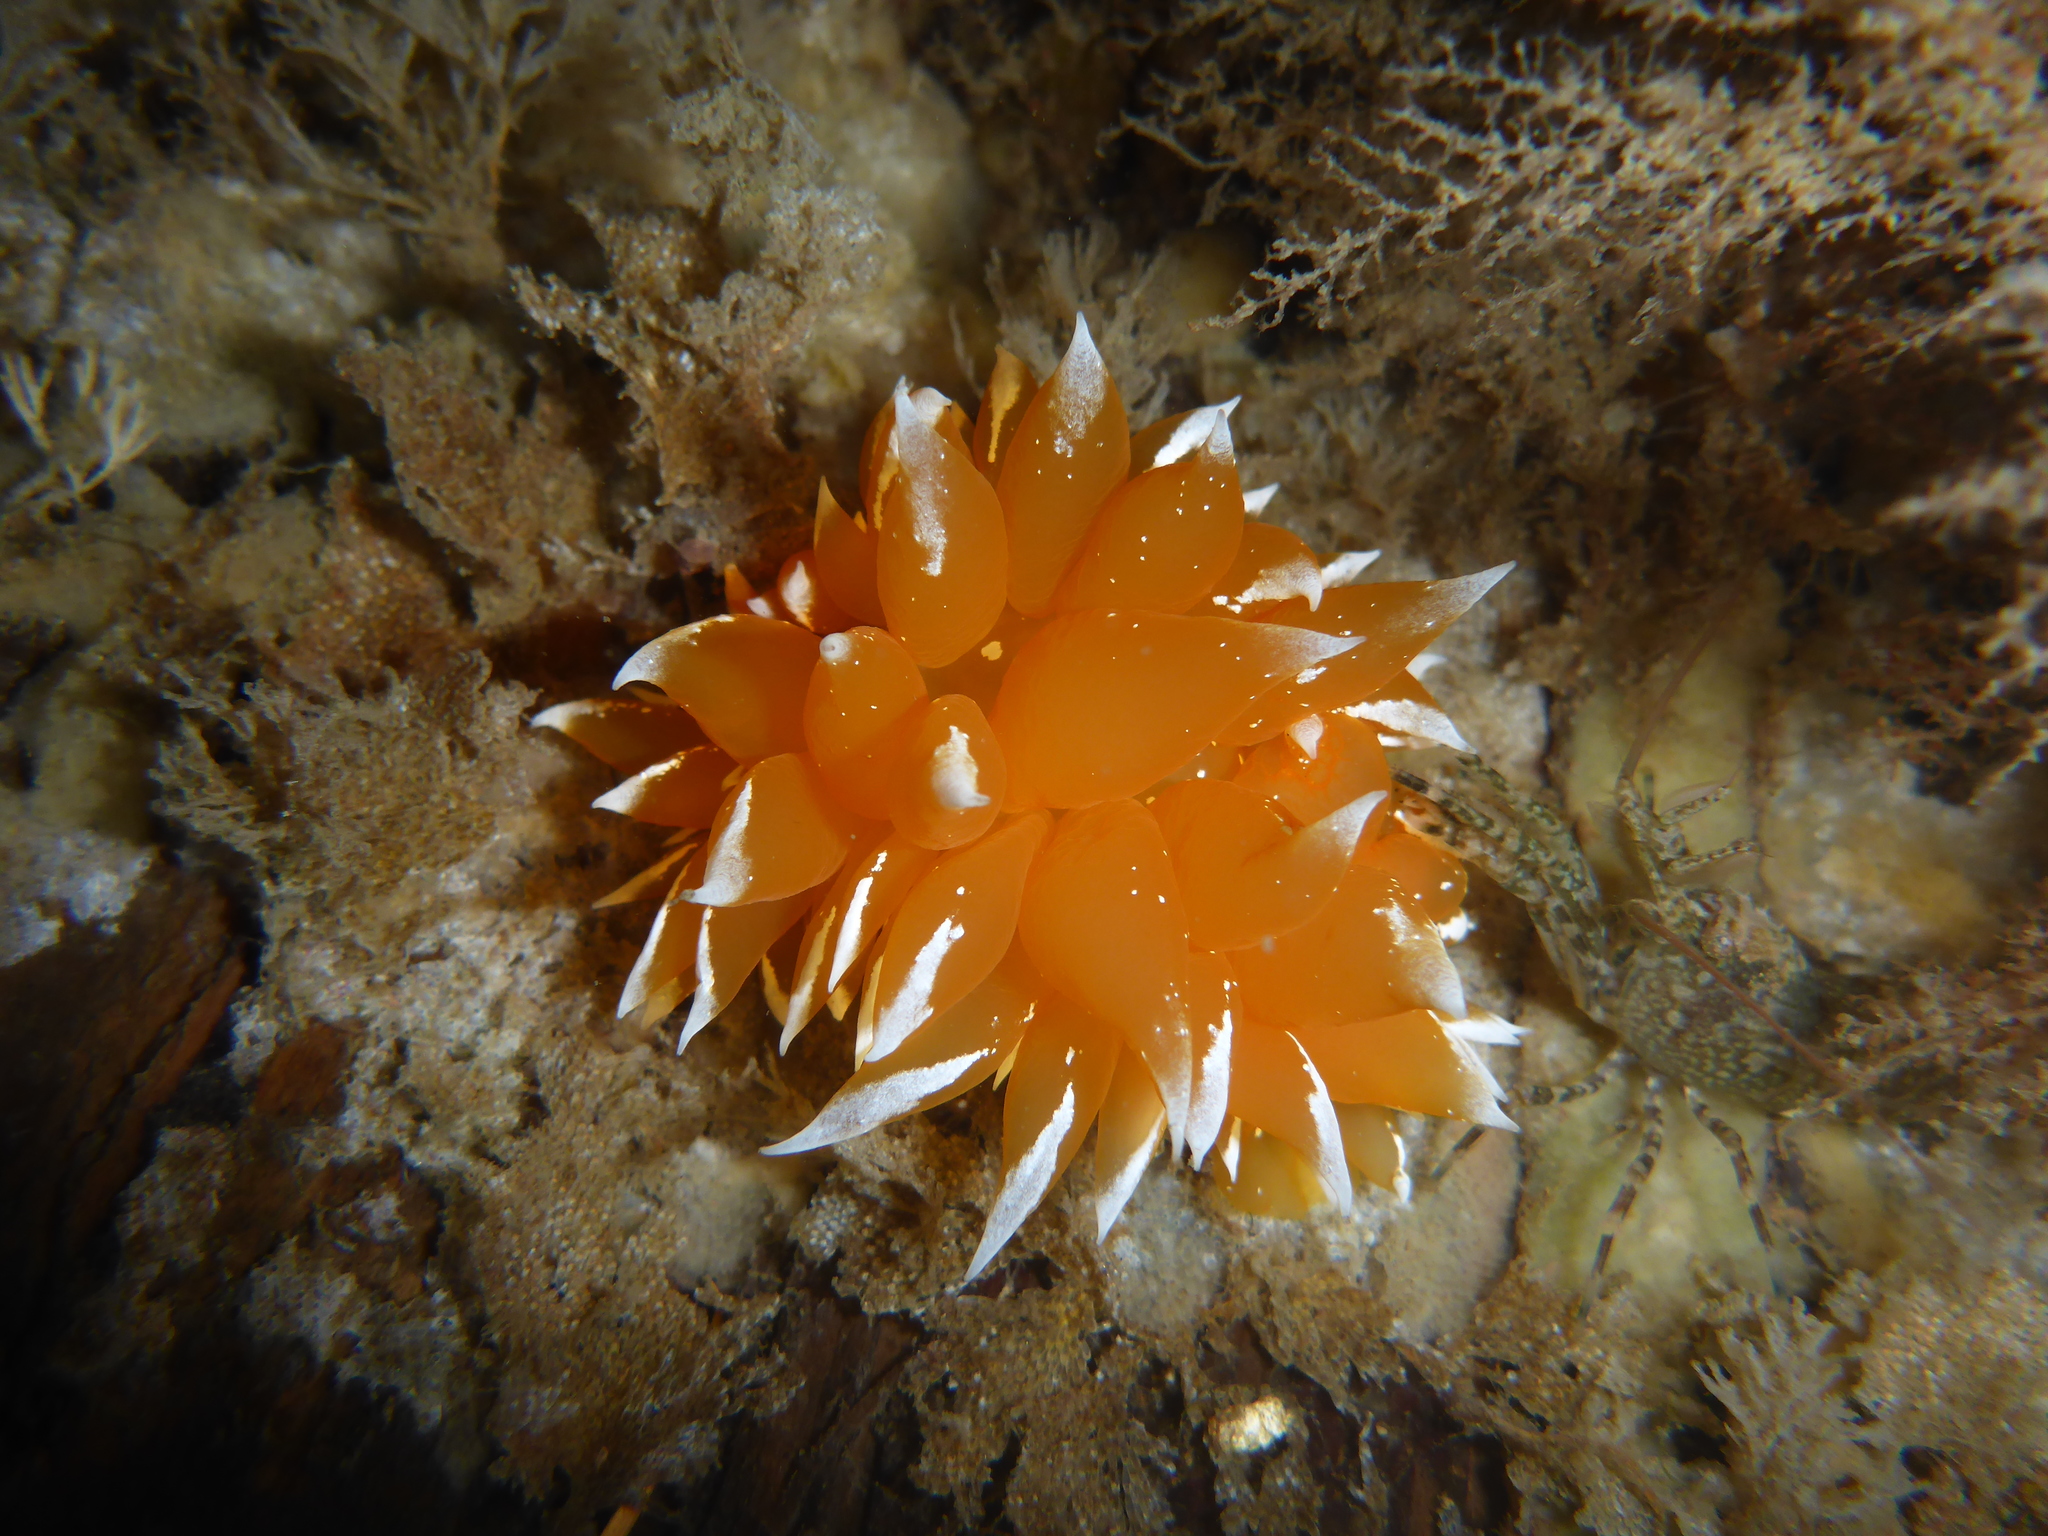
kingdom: Animalia
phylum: Mollusca
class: Gastropoda
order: Nudibranchia
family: Dironidae
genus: Dirona
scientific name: Dirona pellucida
